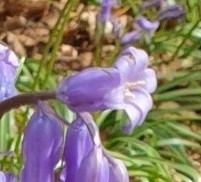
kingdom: Plantae
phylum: Tracheophyta
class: Liliopsida
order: Asparagales
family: Asparagaceae
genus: Hyacinthoides
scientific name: Hyacinthoides non-scripta
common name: Bluebell
